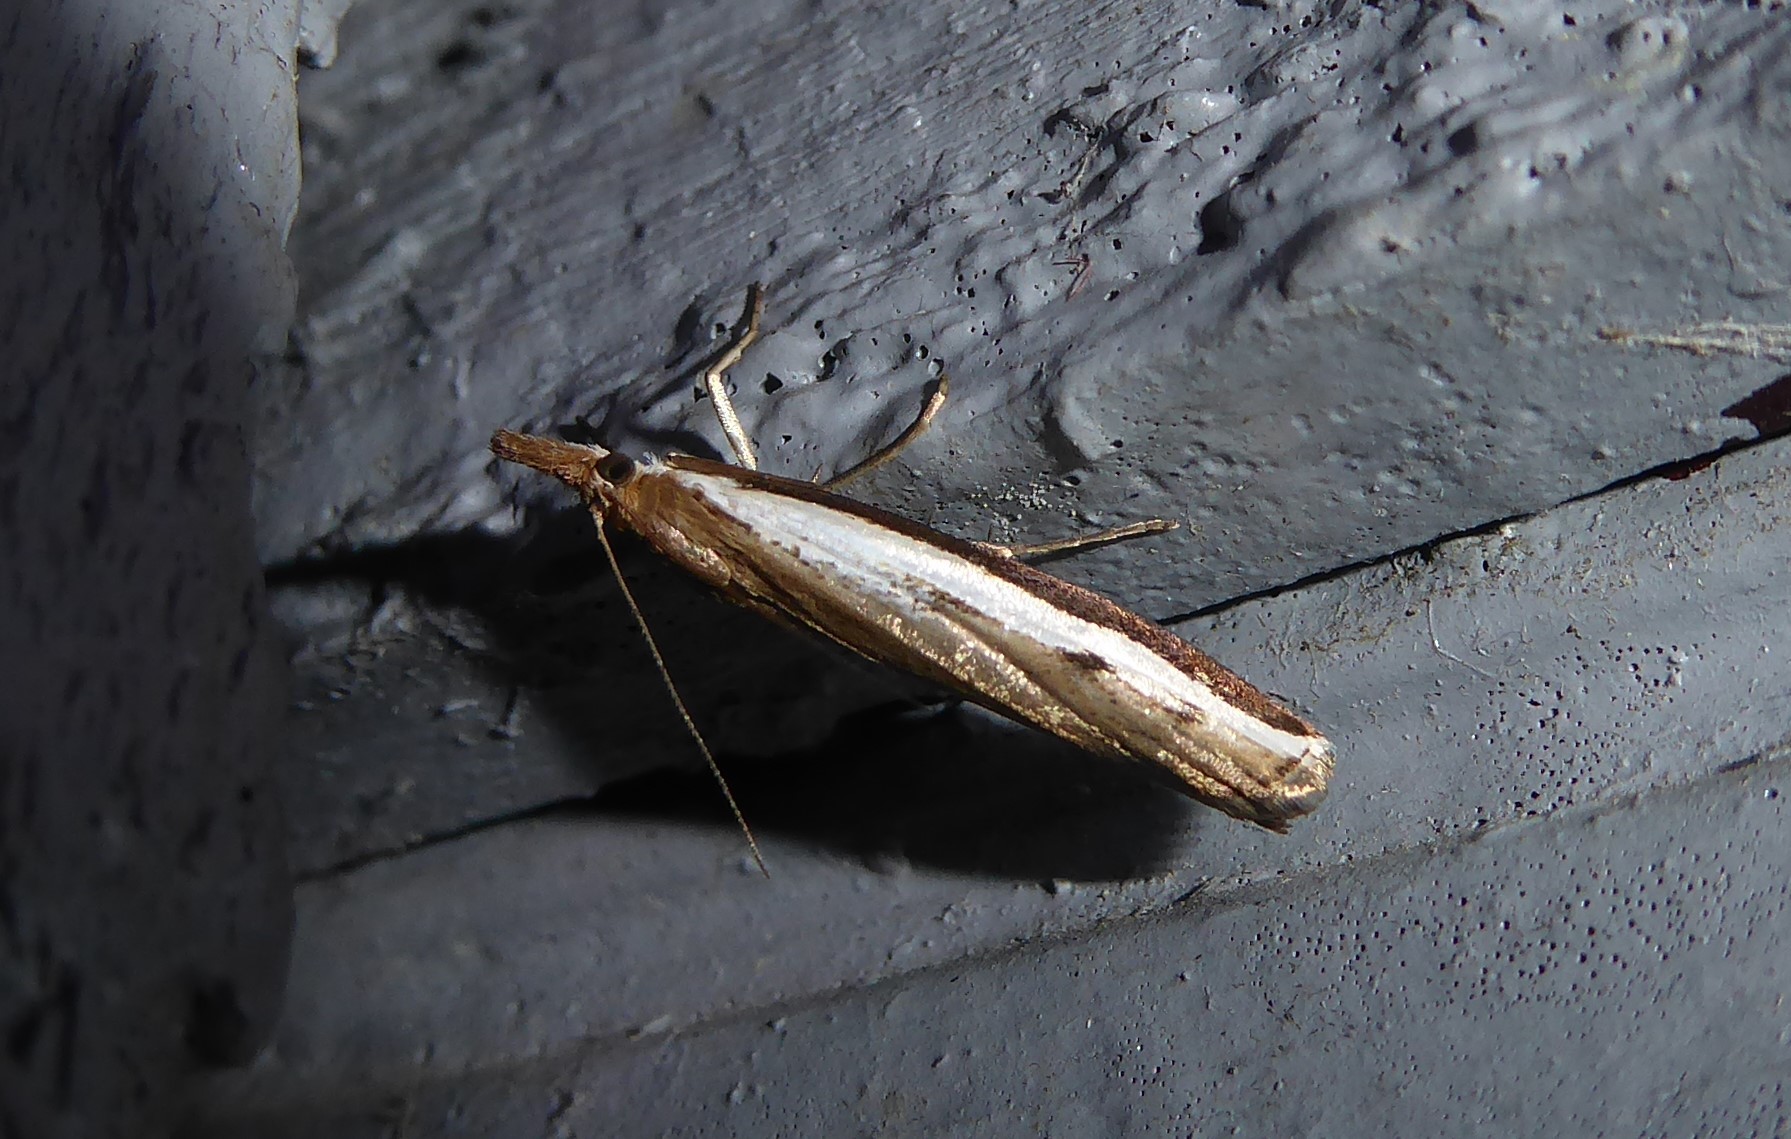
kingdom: Animalia
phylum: Arthropoda
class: Insecta
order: Lepidoptera
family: Crambidae
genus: Orocrambus
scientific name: Orocrambus flexuosellus
